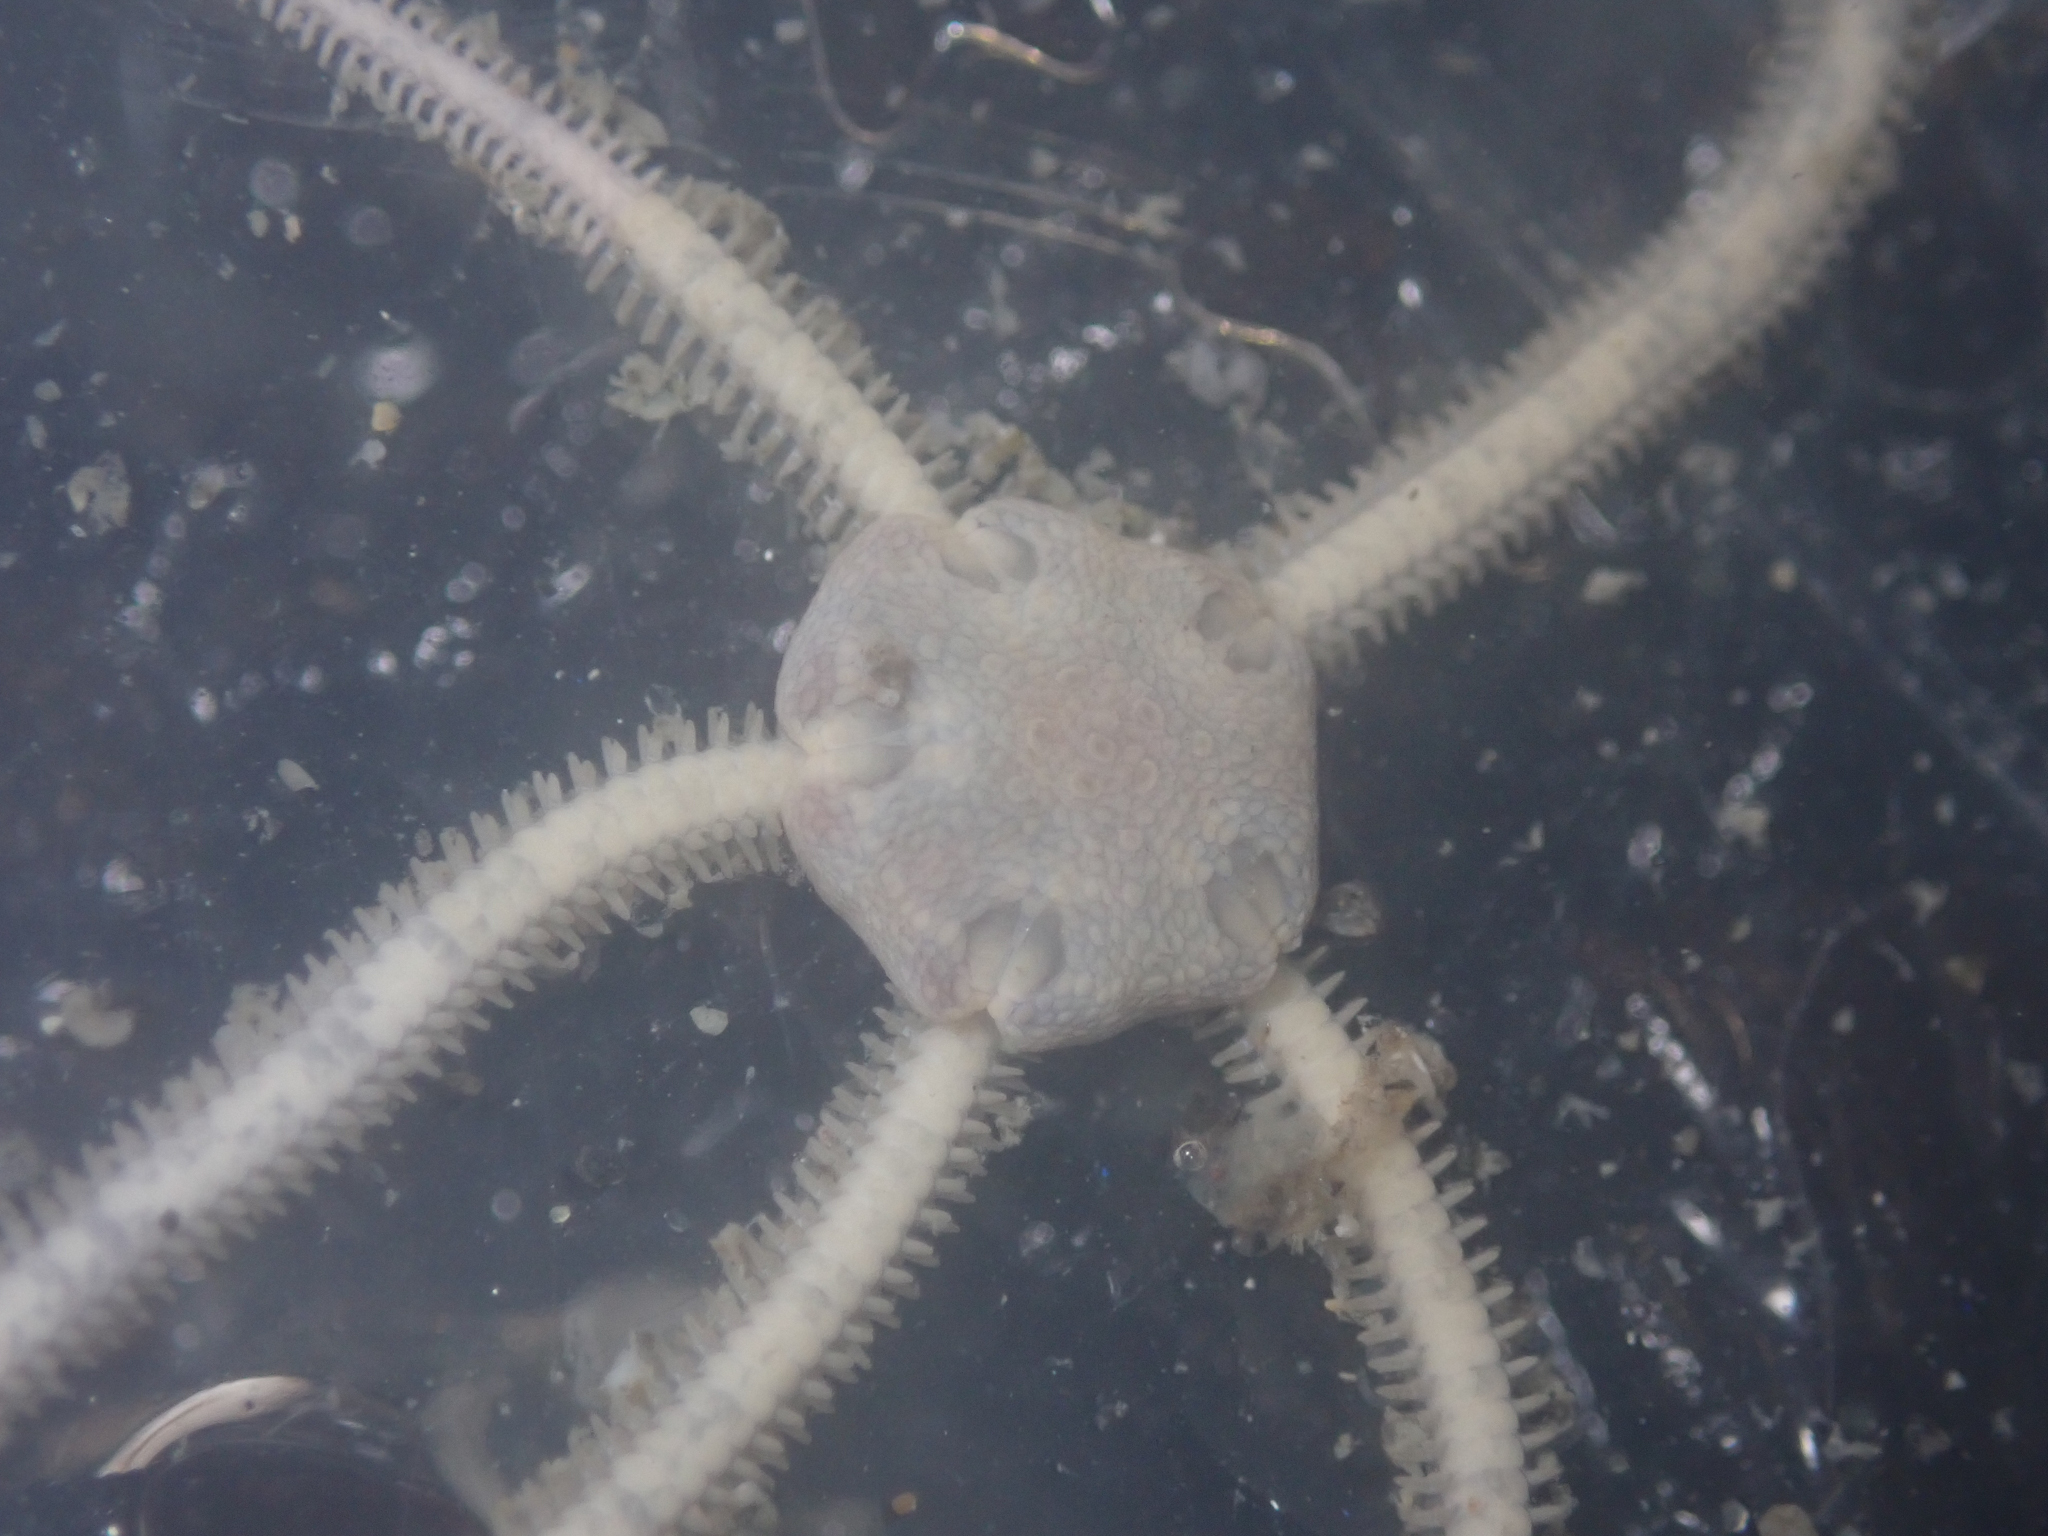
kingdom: Animalia
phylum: Echinodermata
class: Ophiuroidea
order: Amphilepidida
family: Amphiuridae
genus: Amphiodia
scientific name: Amphiodia occidentalis
